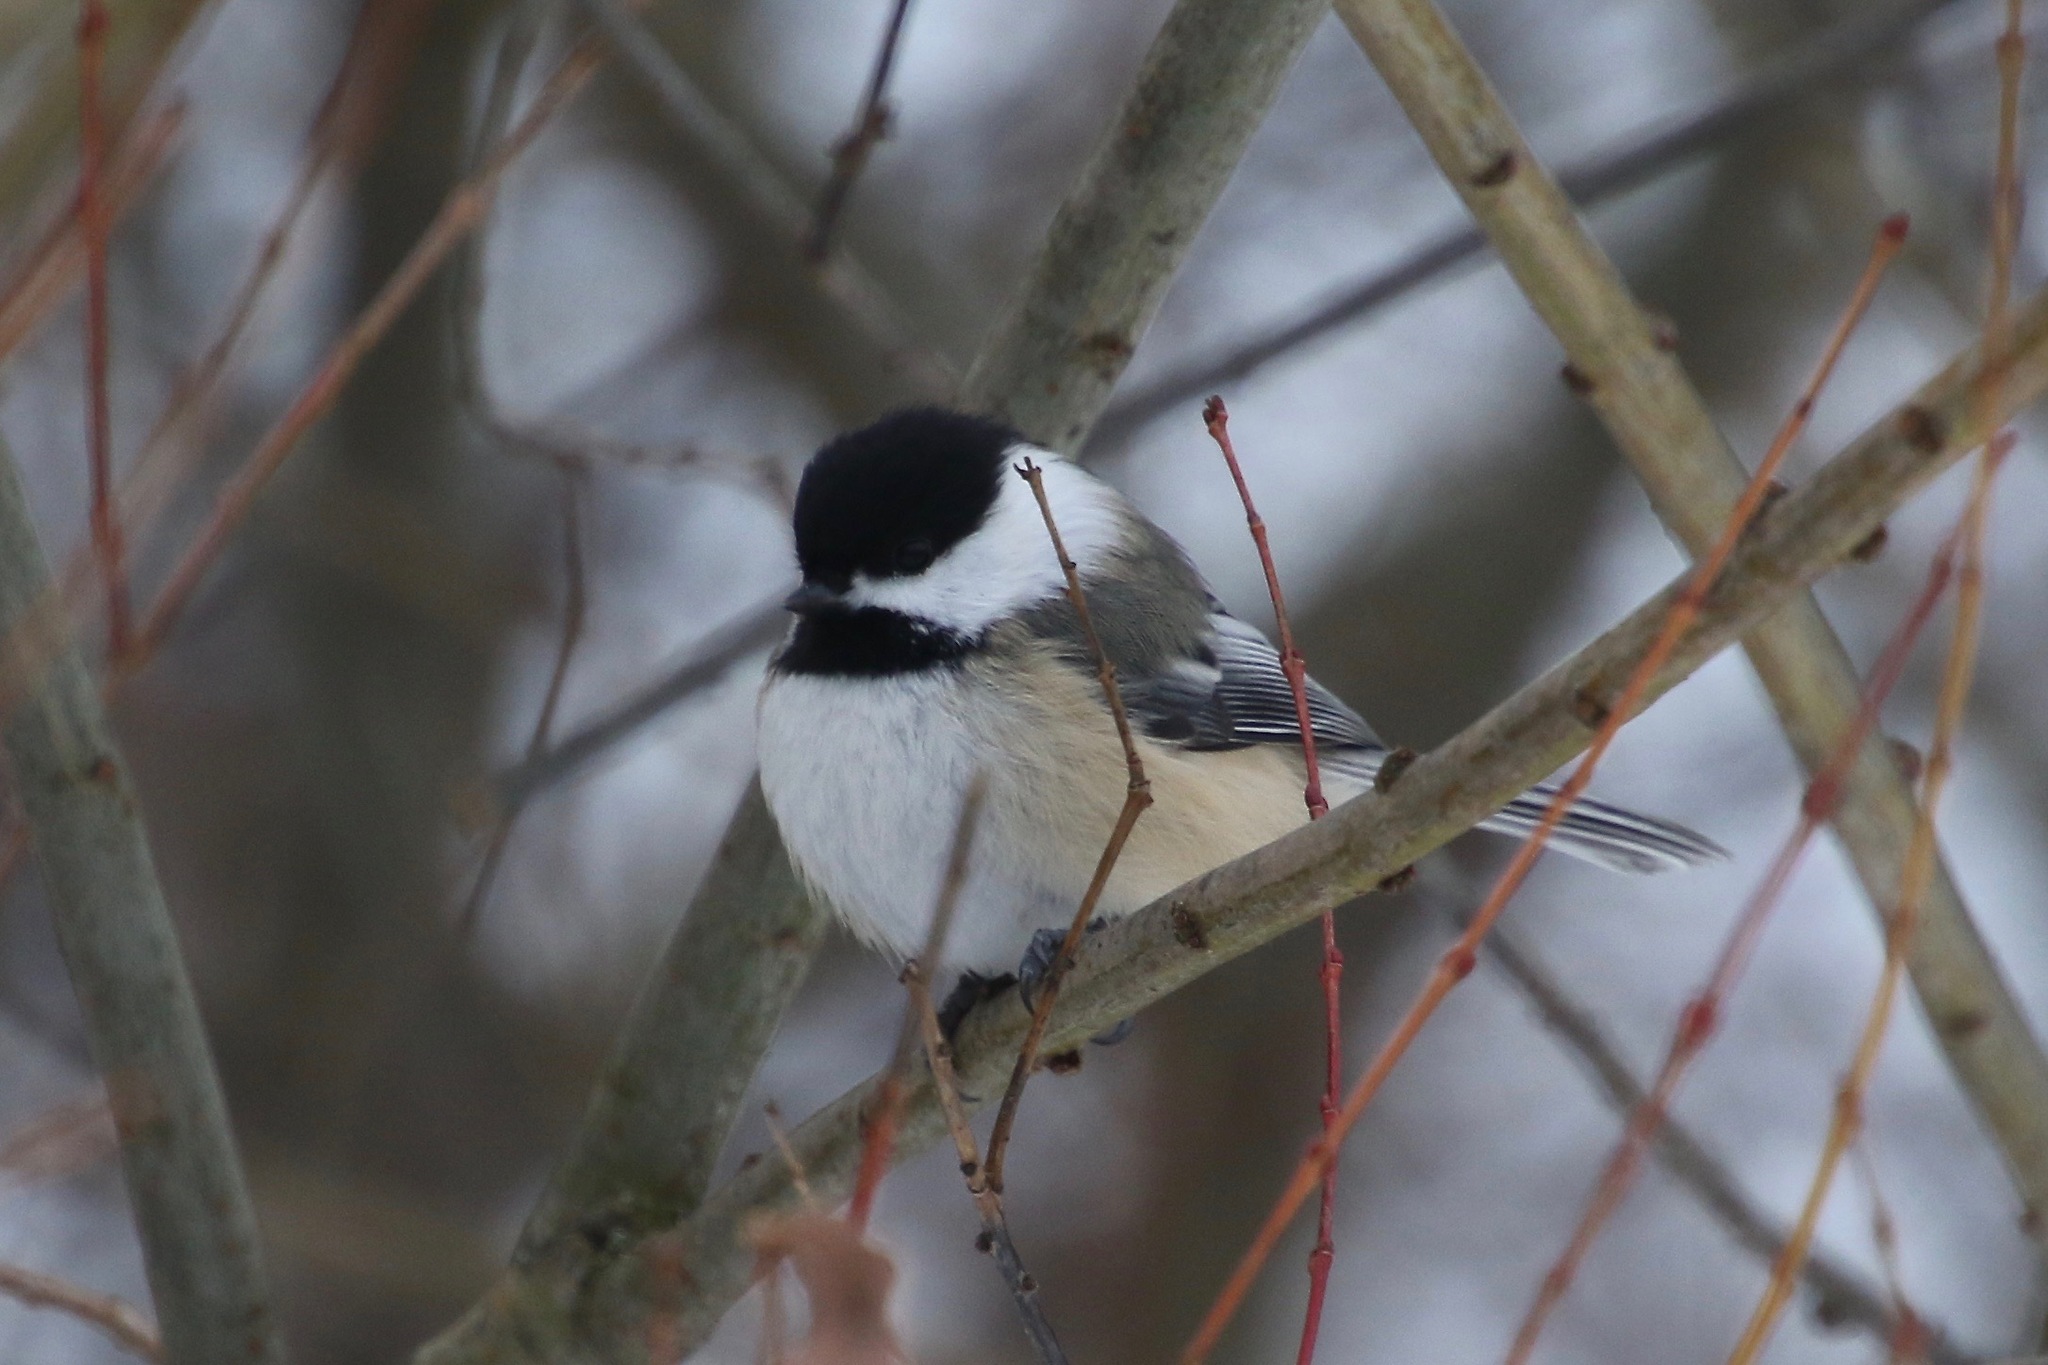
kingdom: Animalia
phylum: Chordata
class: Aves
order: Passeriformes
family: Paridae
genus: Poecile
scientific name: Poecile atricapillus
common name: Black-capped chickadee
